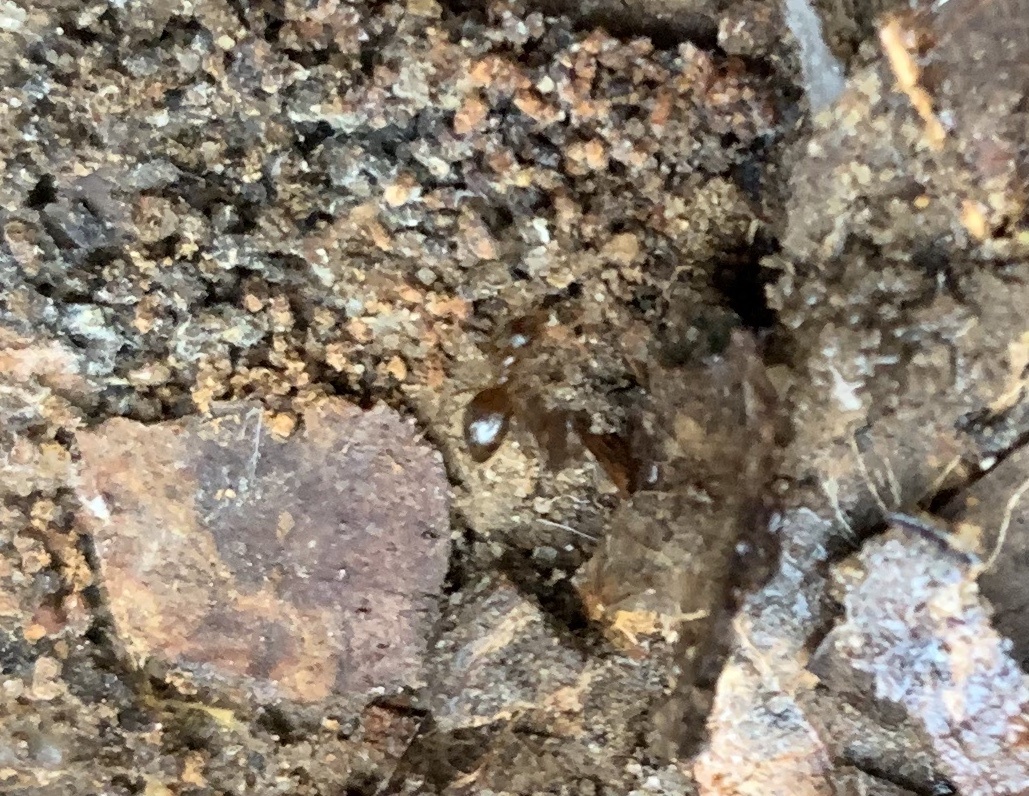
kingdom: Animalia
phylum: Arthropoda
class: Insecta
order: Hymenoptera
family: Formicidae
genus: Prenolepis
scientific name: Prenolepis imparis
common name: Small honey ant
